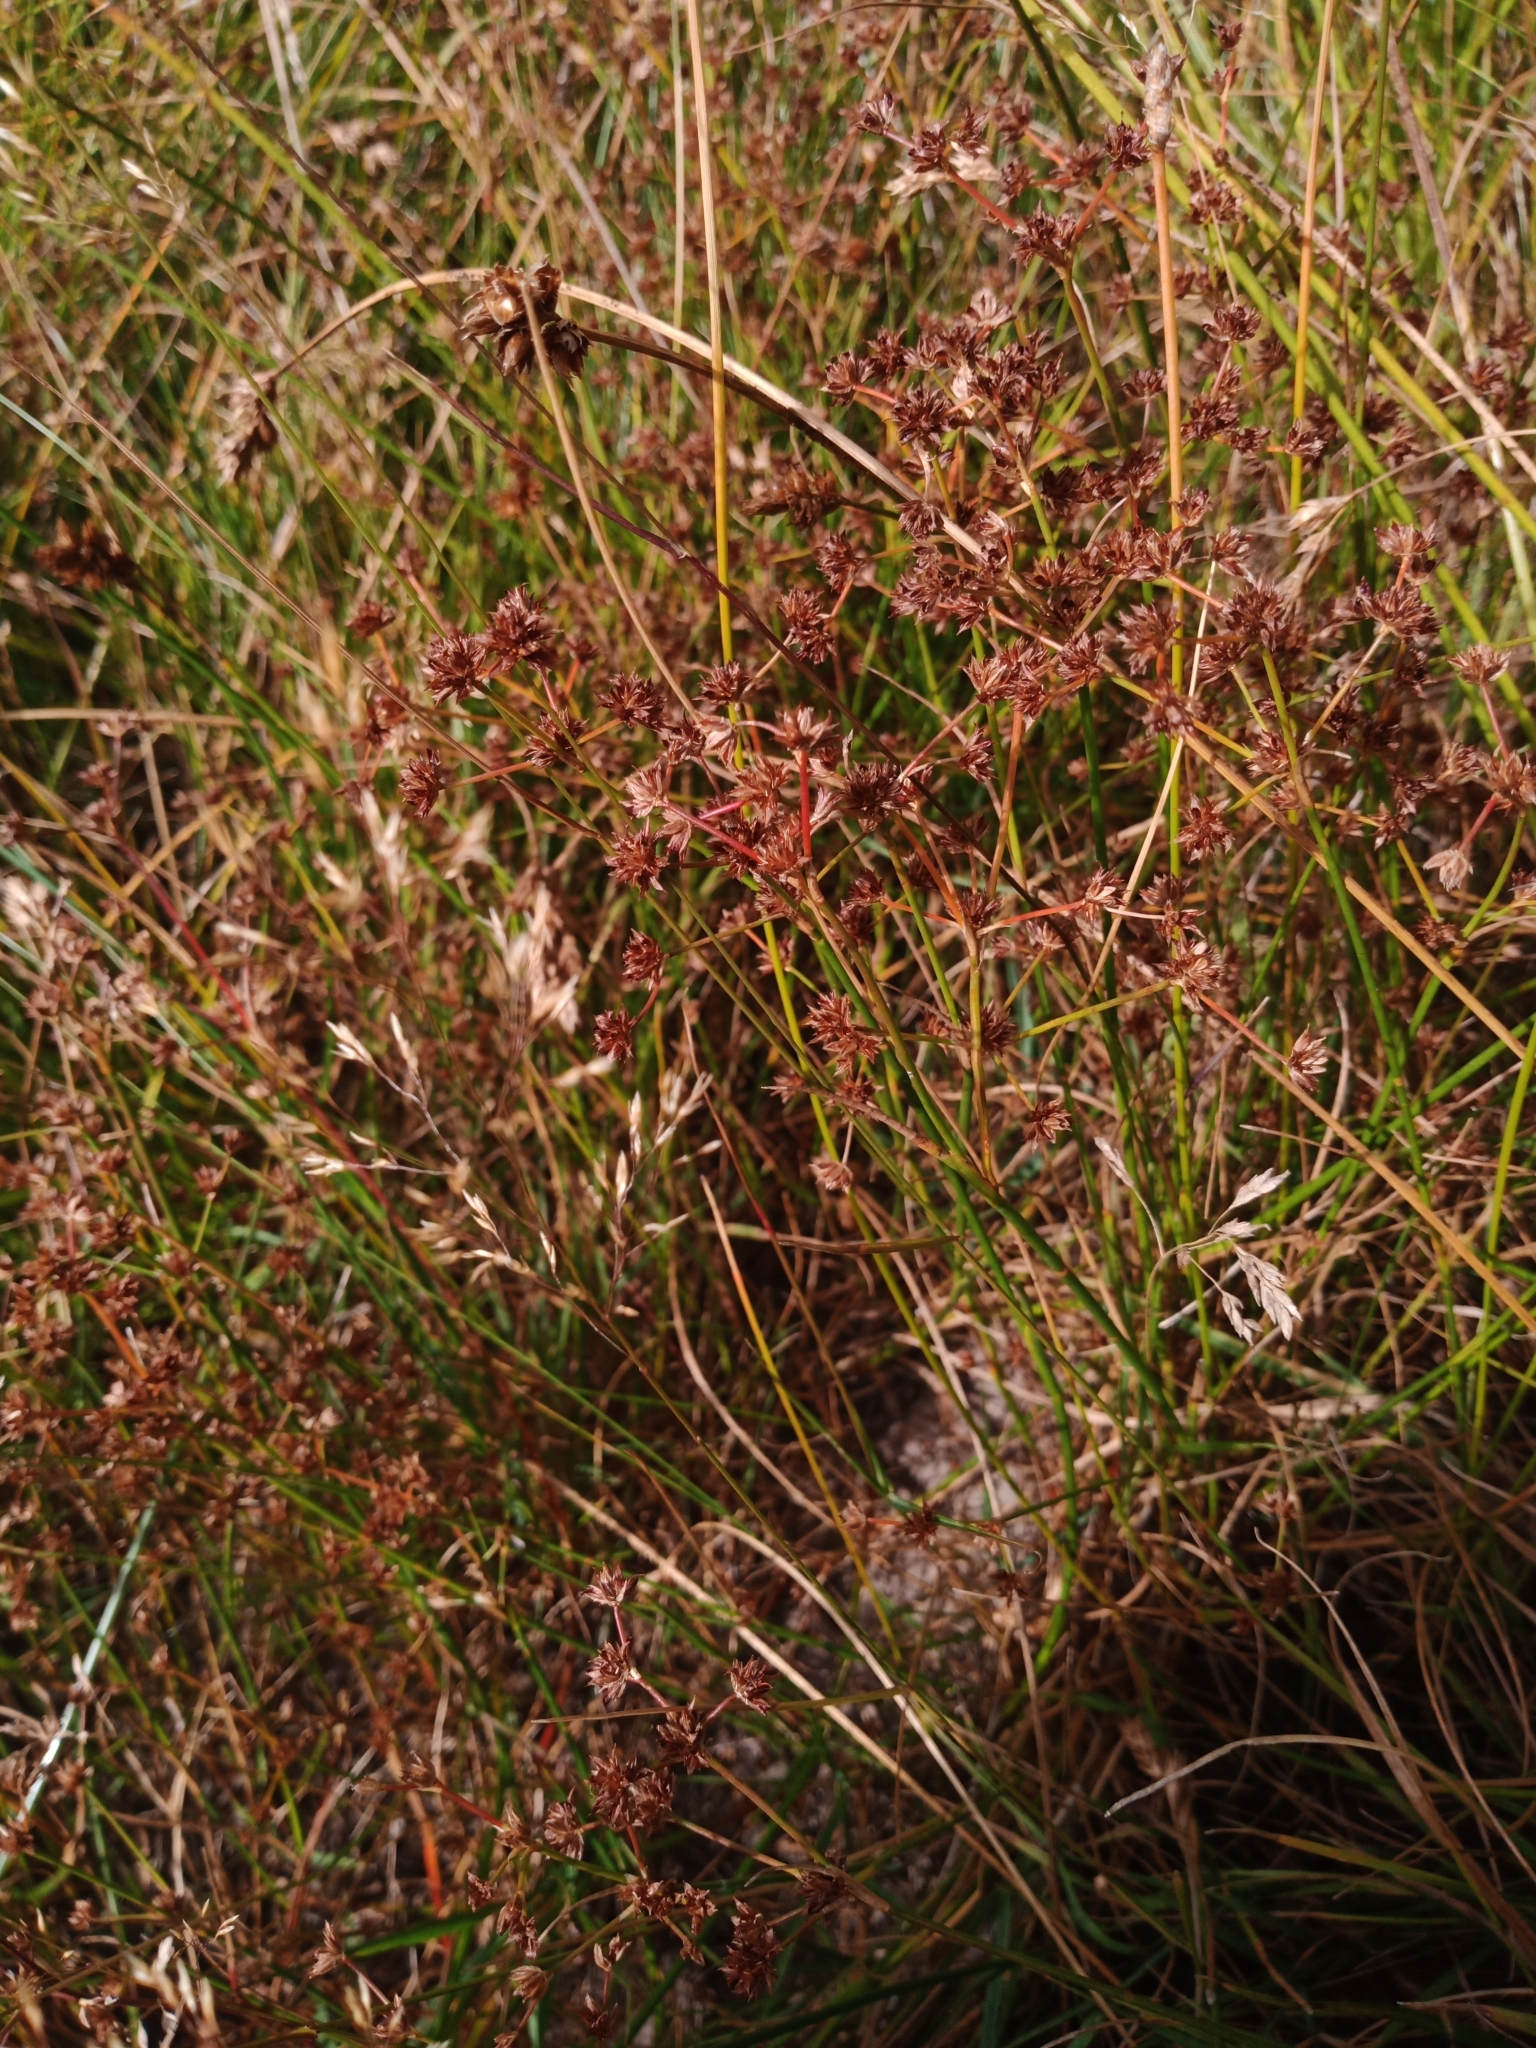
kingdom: Plantae
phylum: Tracheophyta
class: Liliopsida
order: Poales
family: Juncaceae
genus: Juncus
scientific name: Juncus articulatus
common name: Jointed rush
